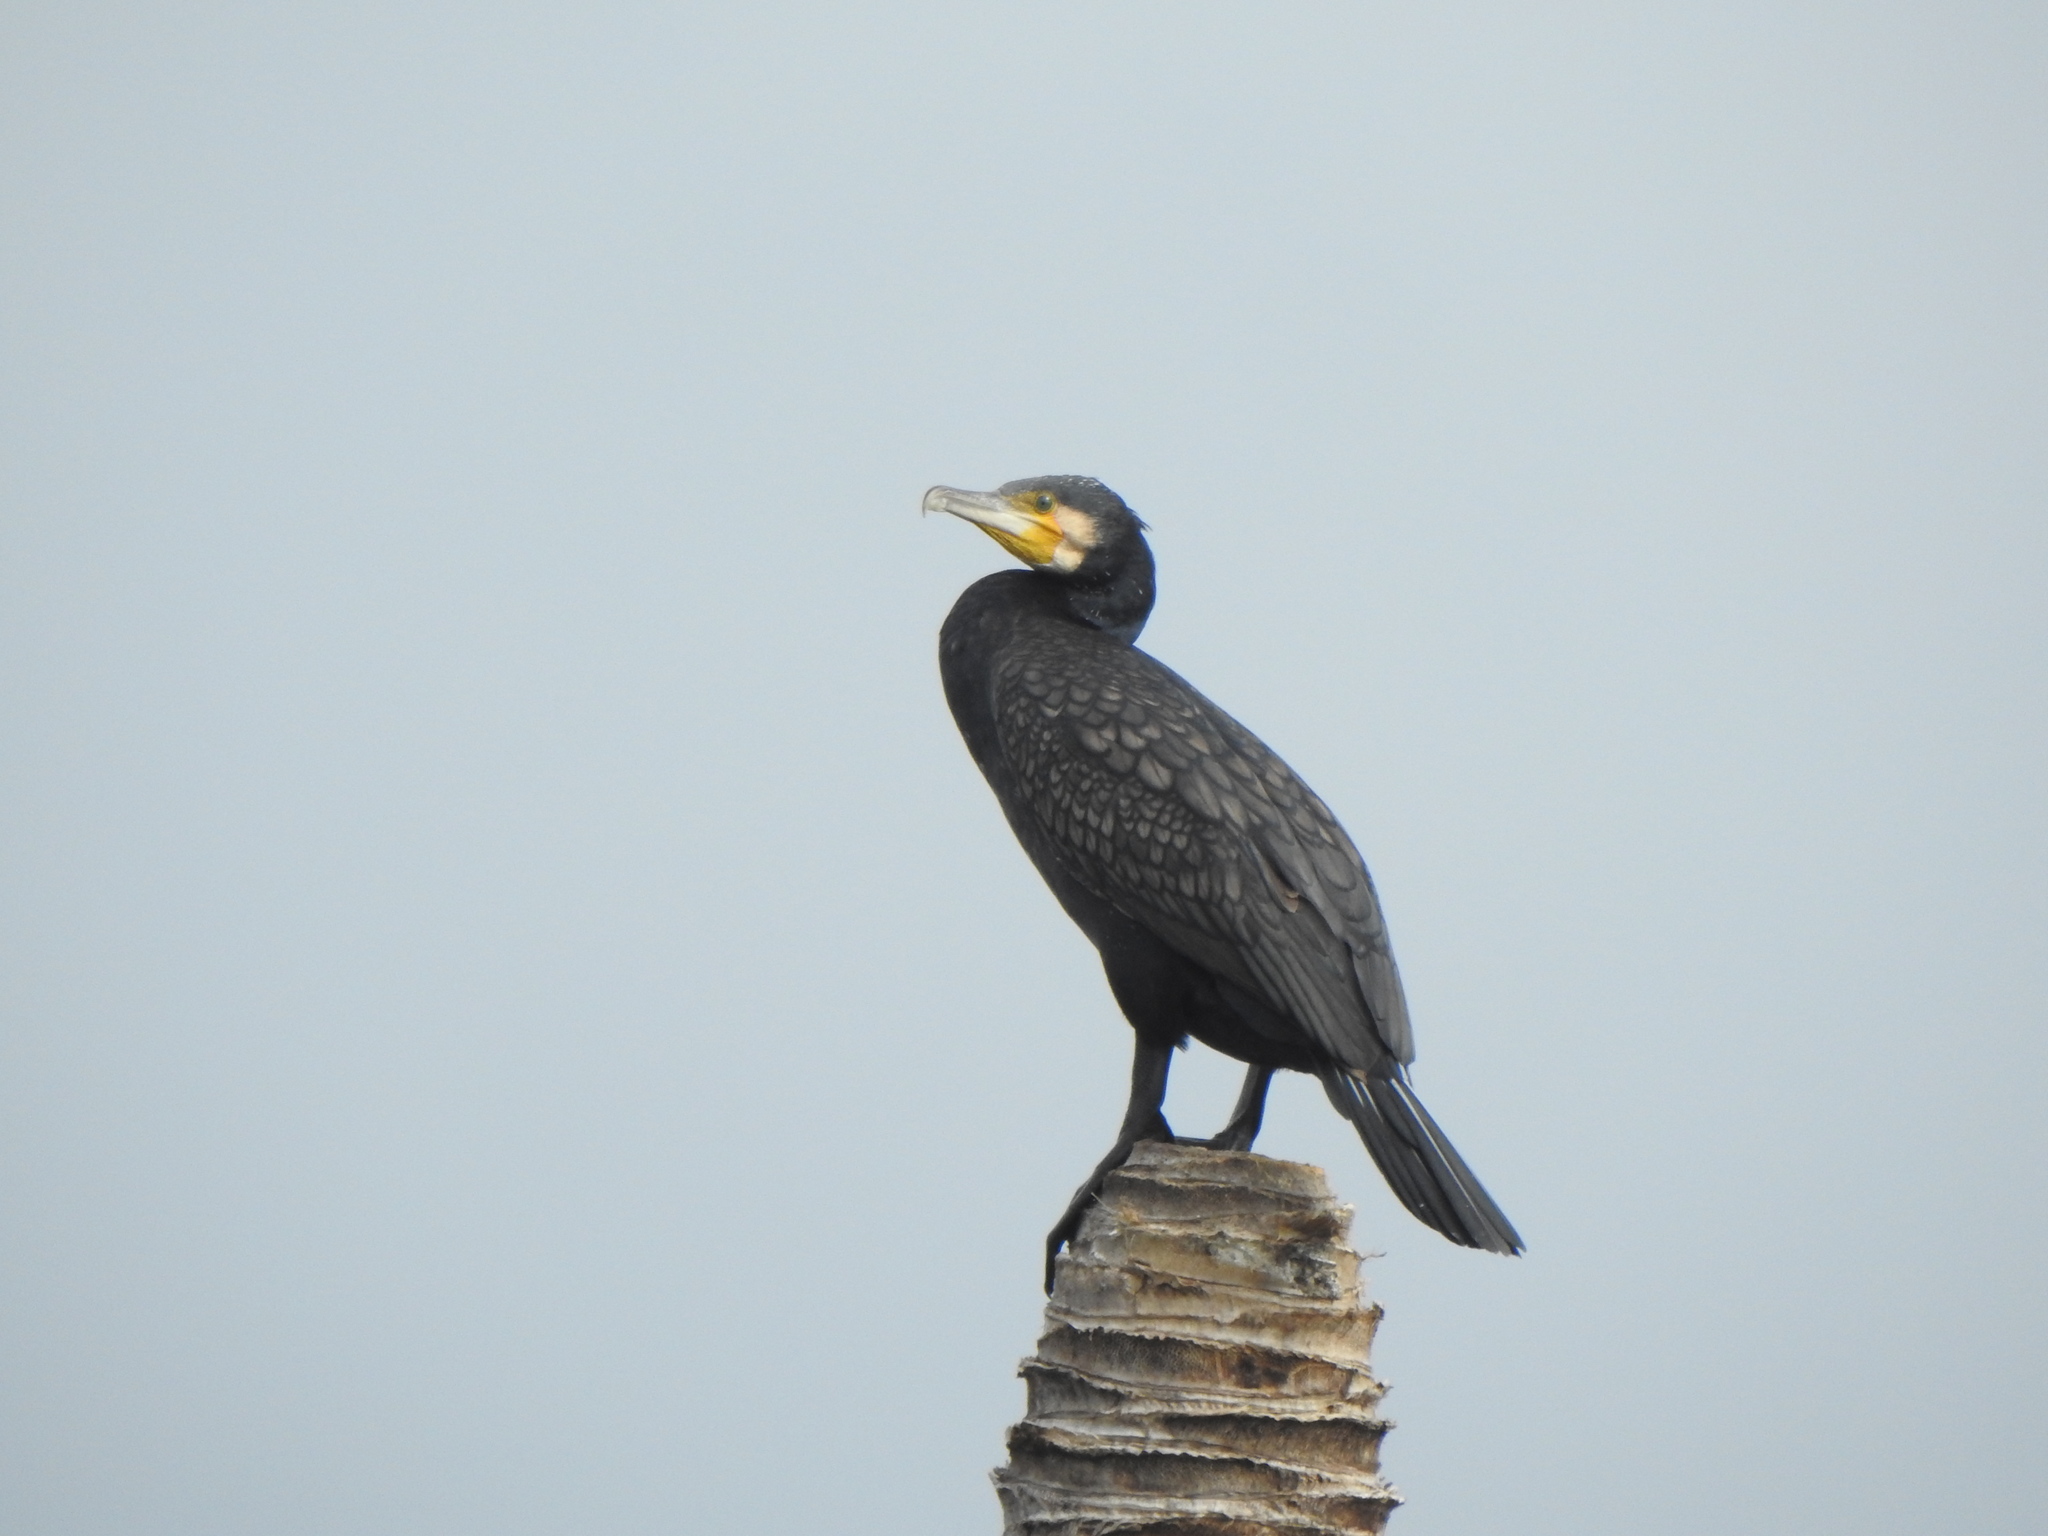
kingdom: Animalia
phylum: Chordata
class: Aves
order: Suliformes
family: Phalacrocoracidae
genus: Phalacrocorax
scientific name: Phalacrocorax carbo
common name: Great cormorant
